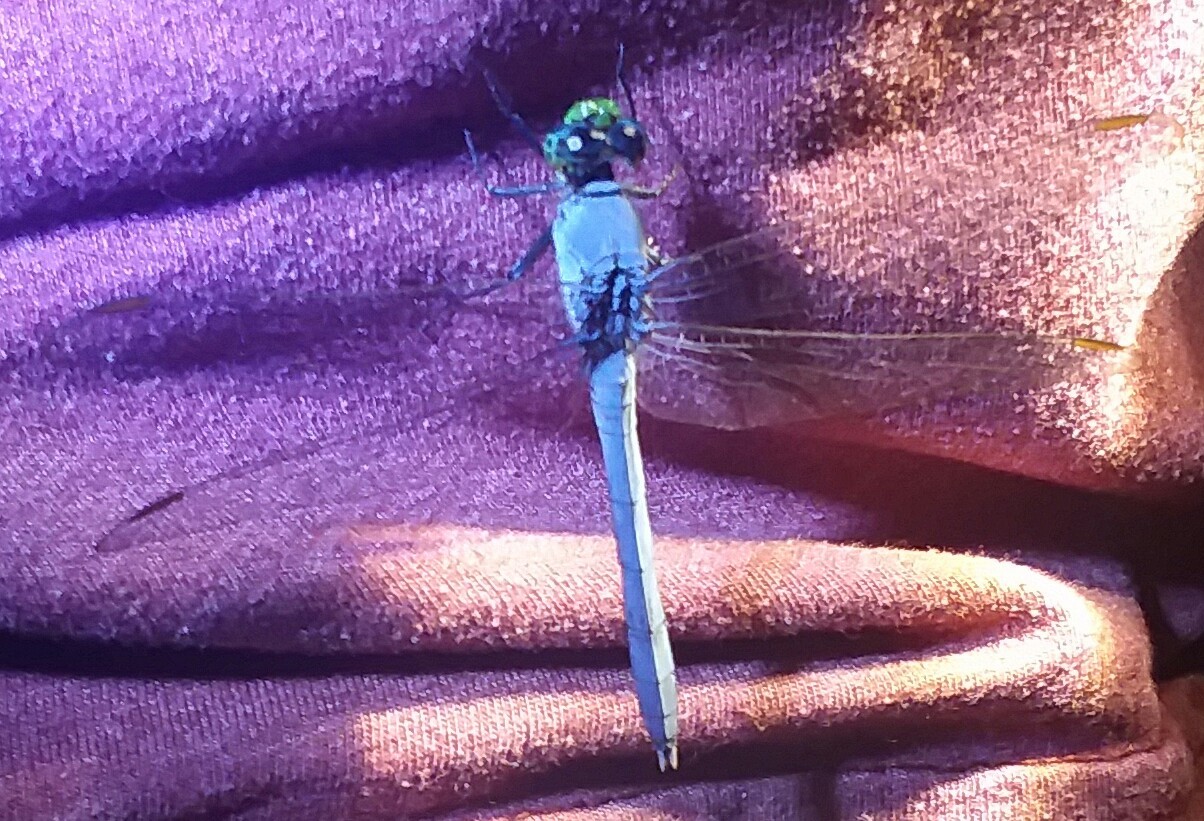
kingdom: Animalia
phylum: Arthropoda
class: Insecta
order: Odonata
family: Libellulidae
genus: Erythemis
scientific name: Erythemis simplicicollis
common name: Eastern pondhawk
